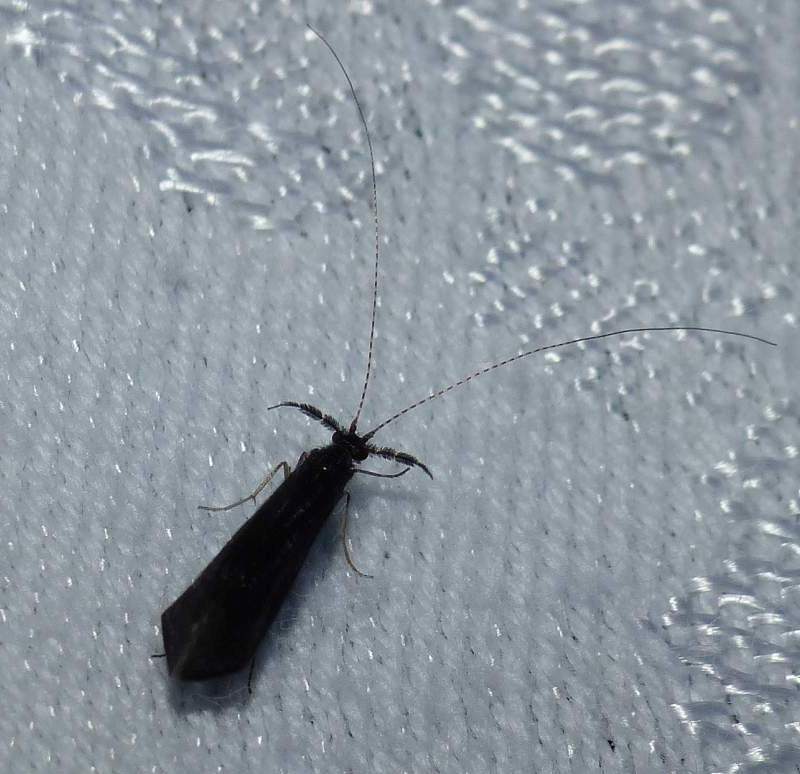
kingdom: Animalia
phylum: Arthropoda
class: Insecta
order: Trichoptera
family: Leptoceridae
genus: Mystacides
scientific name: Mystacides sepulchralis
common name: Black dancer caddisfly
